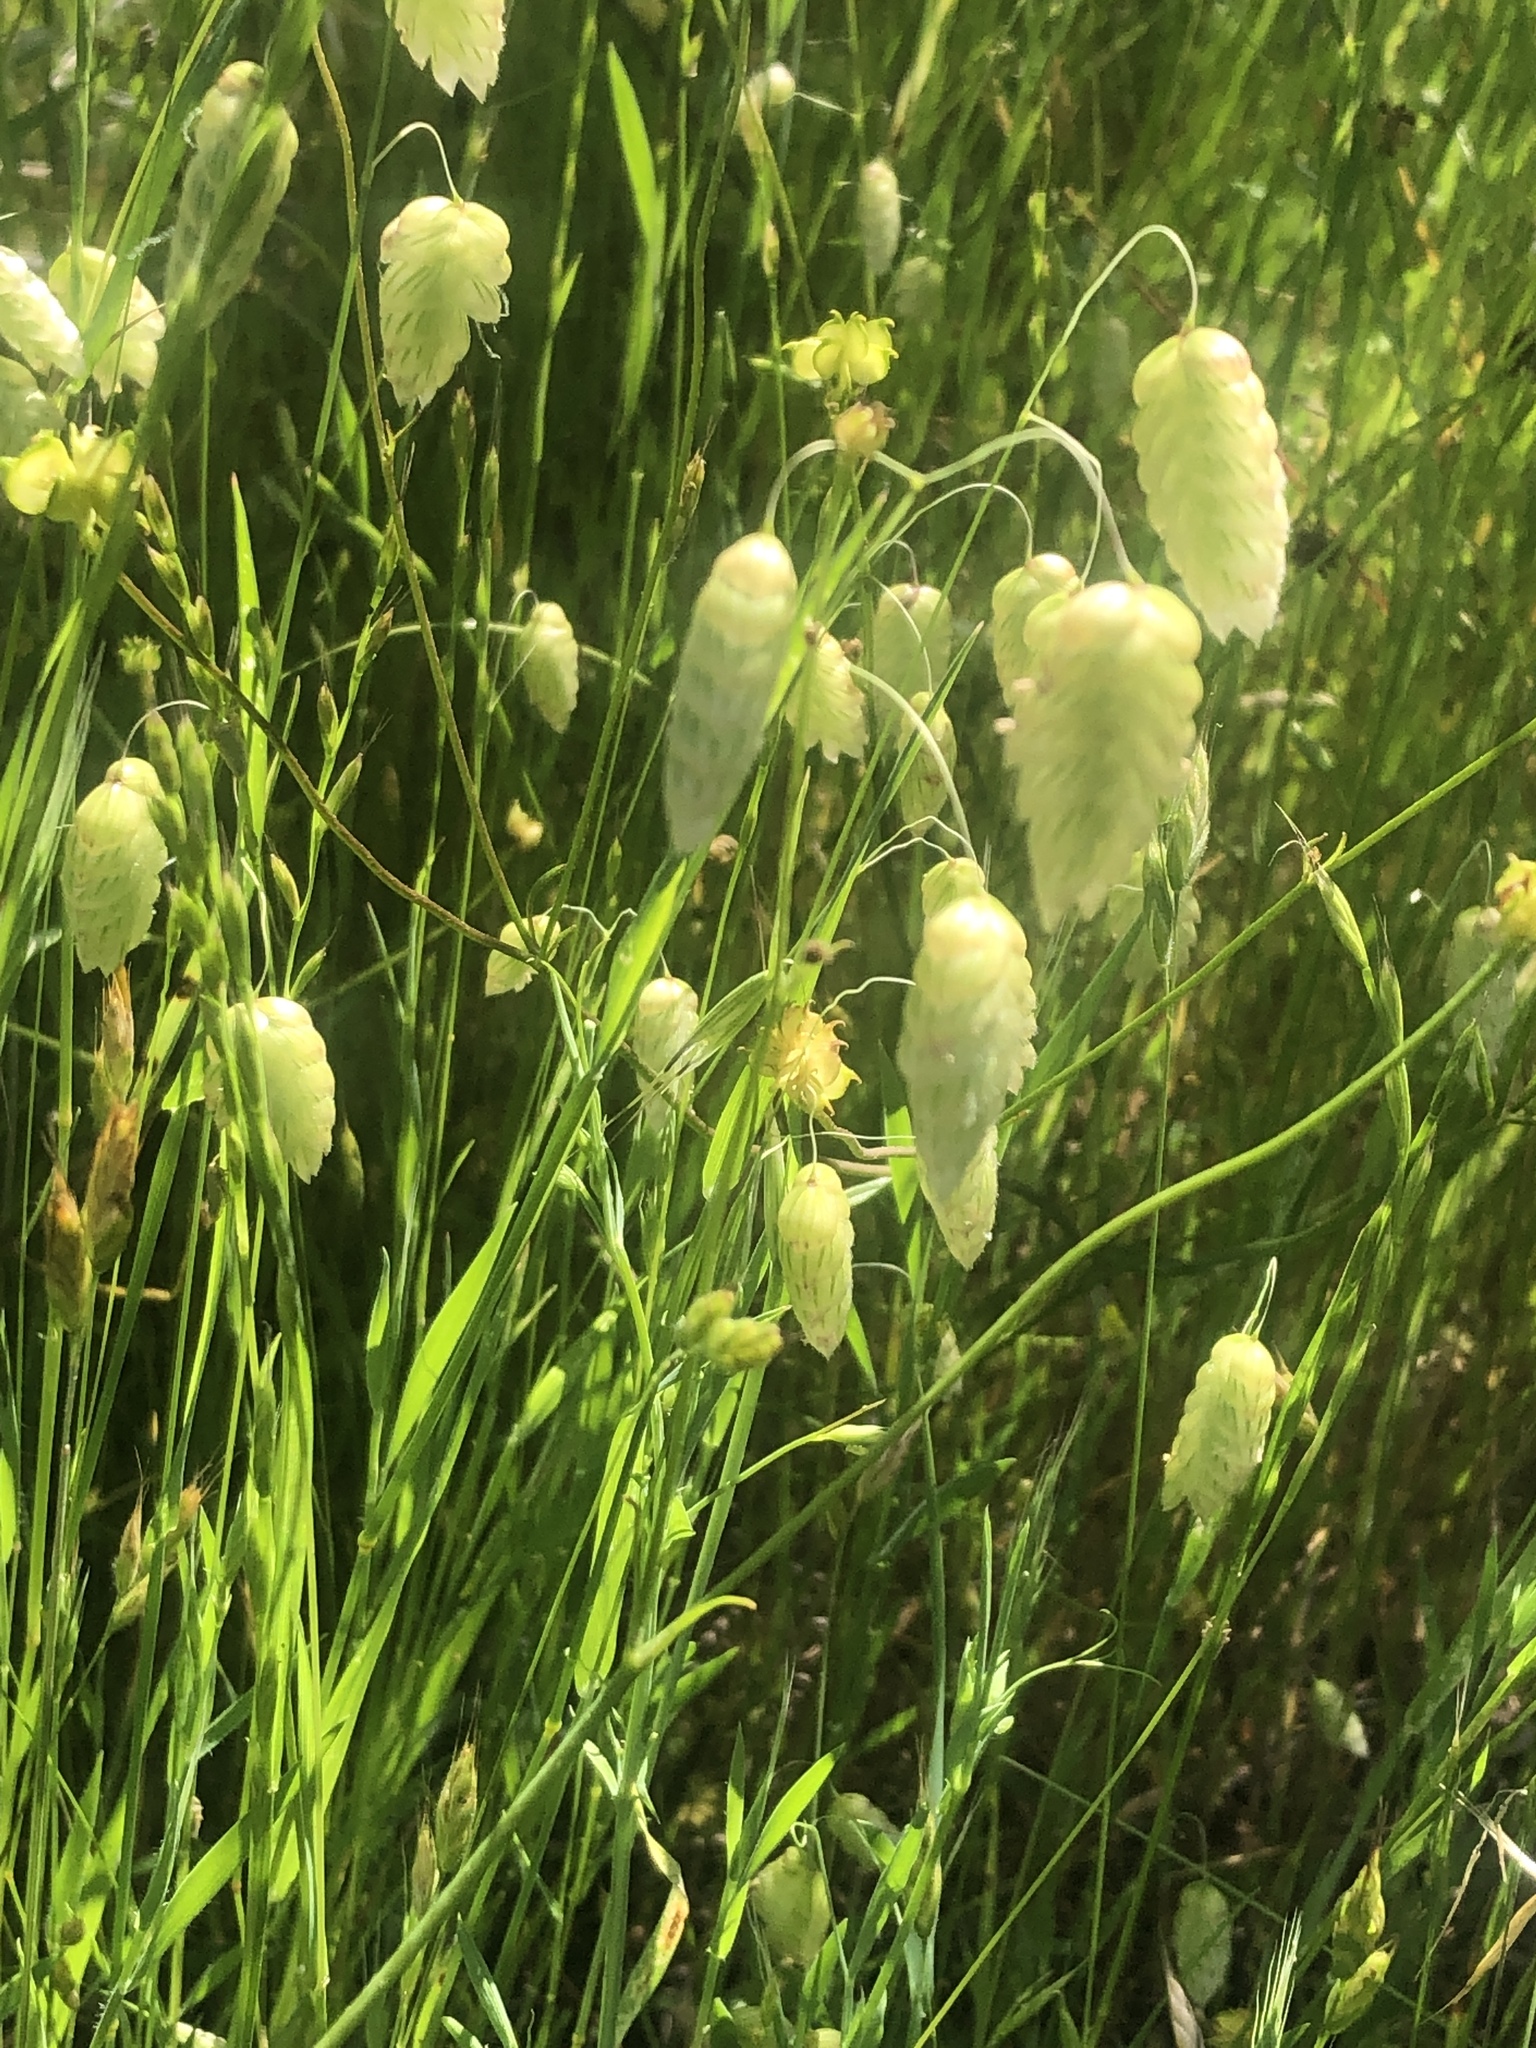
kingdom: Plantae
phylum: Tracheophyta
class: Liliopsida
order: Poales
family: Poaceae
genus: Briza
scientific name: Briza maxima
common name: Big quakinggrass
